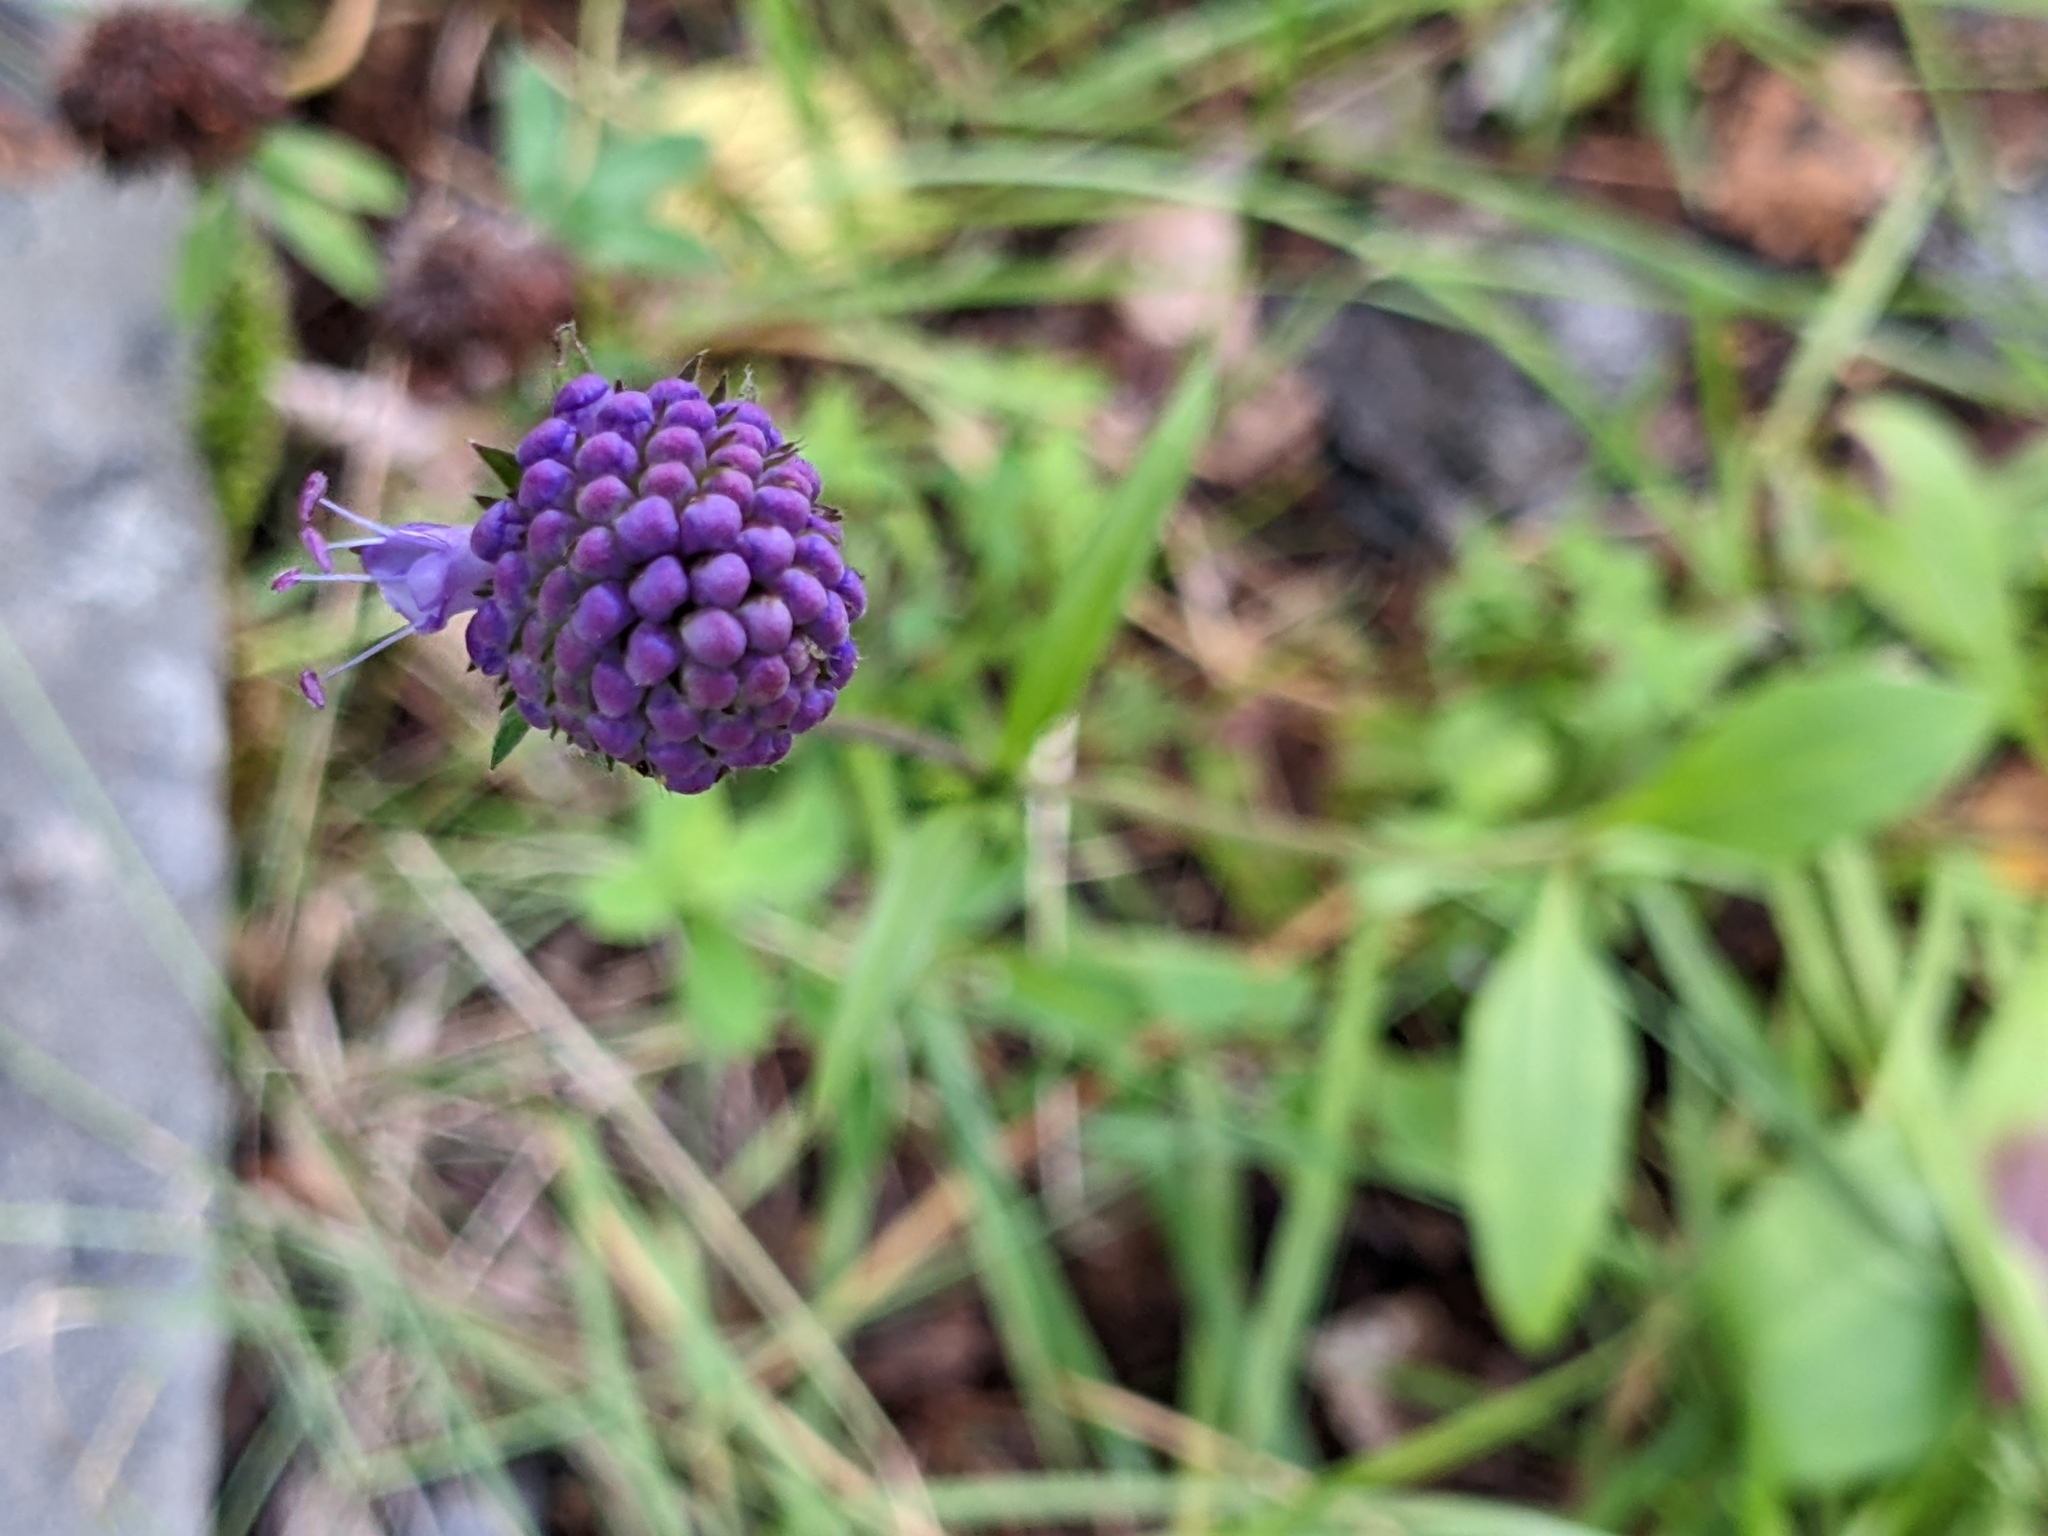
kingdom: Plantae
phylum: Tracheophyta
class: Magnoliopsida
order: Dipsacales
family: Caprifoliaceae
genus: Succisa
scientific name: Succisa pratensis
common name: Devil's-bit
